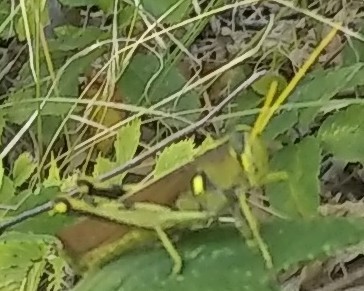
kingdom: Animalia
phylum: Arthropoda
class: Insecta
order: Orthoptera
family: Acrididae
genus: Schistocerca
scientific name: Schistocerca obscura
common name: Obscure bird grasshopper
